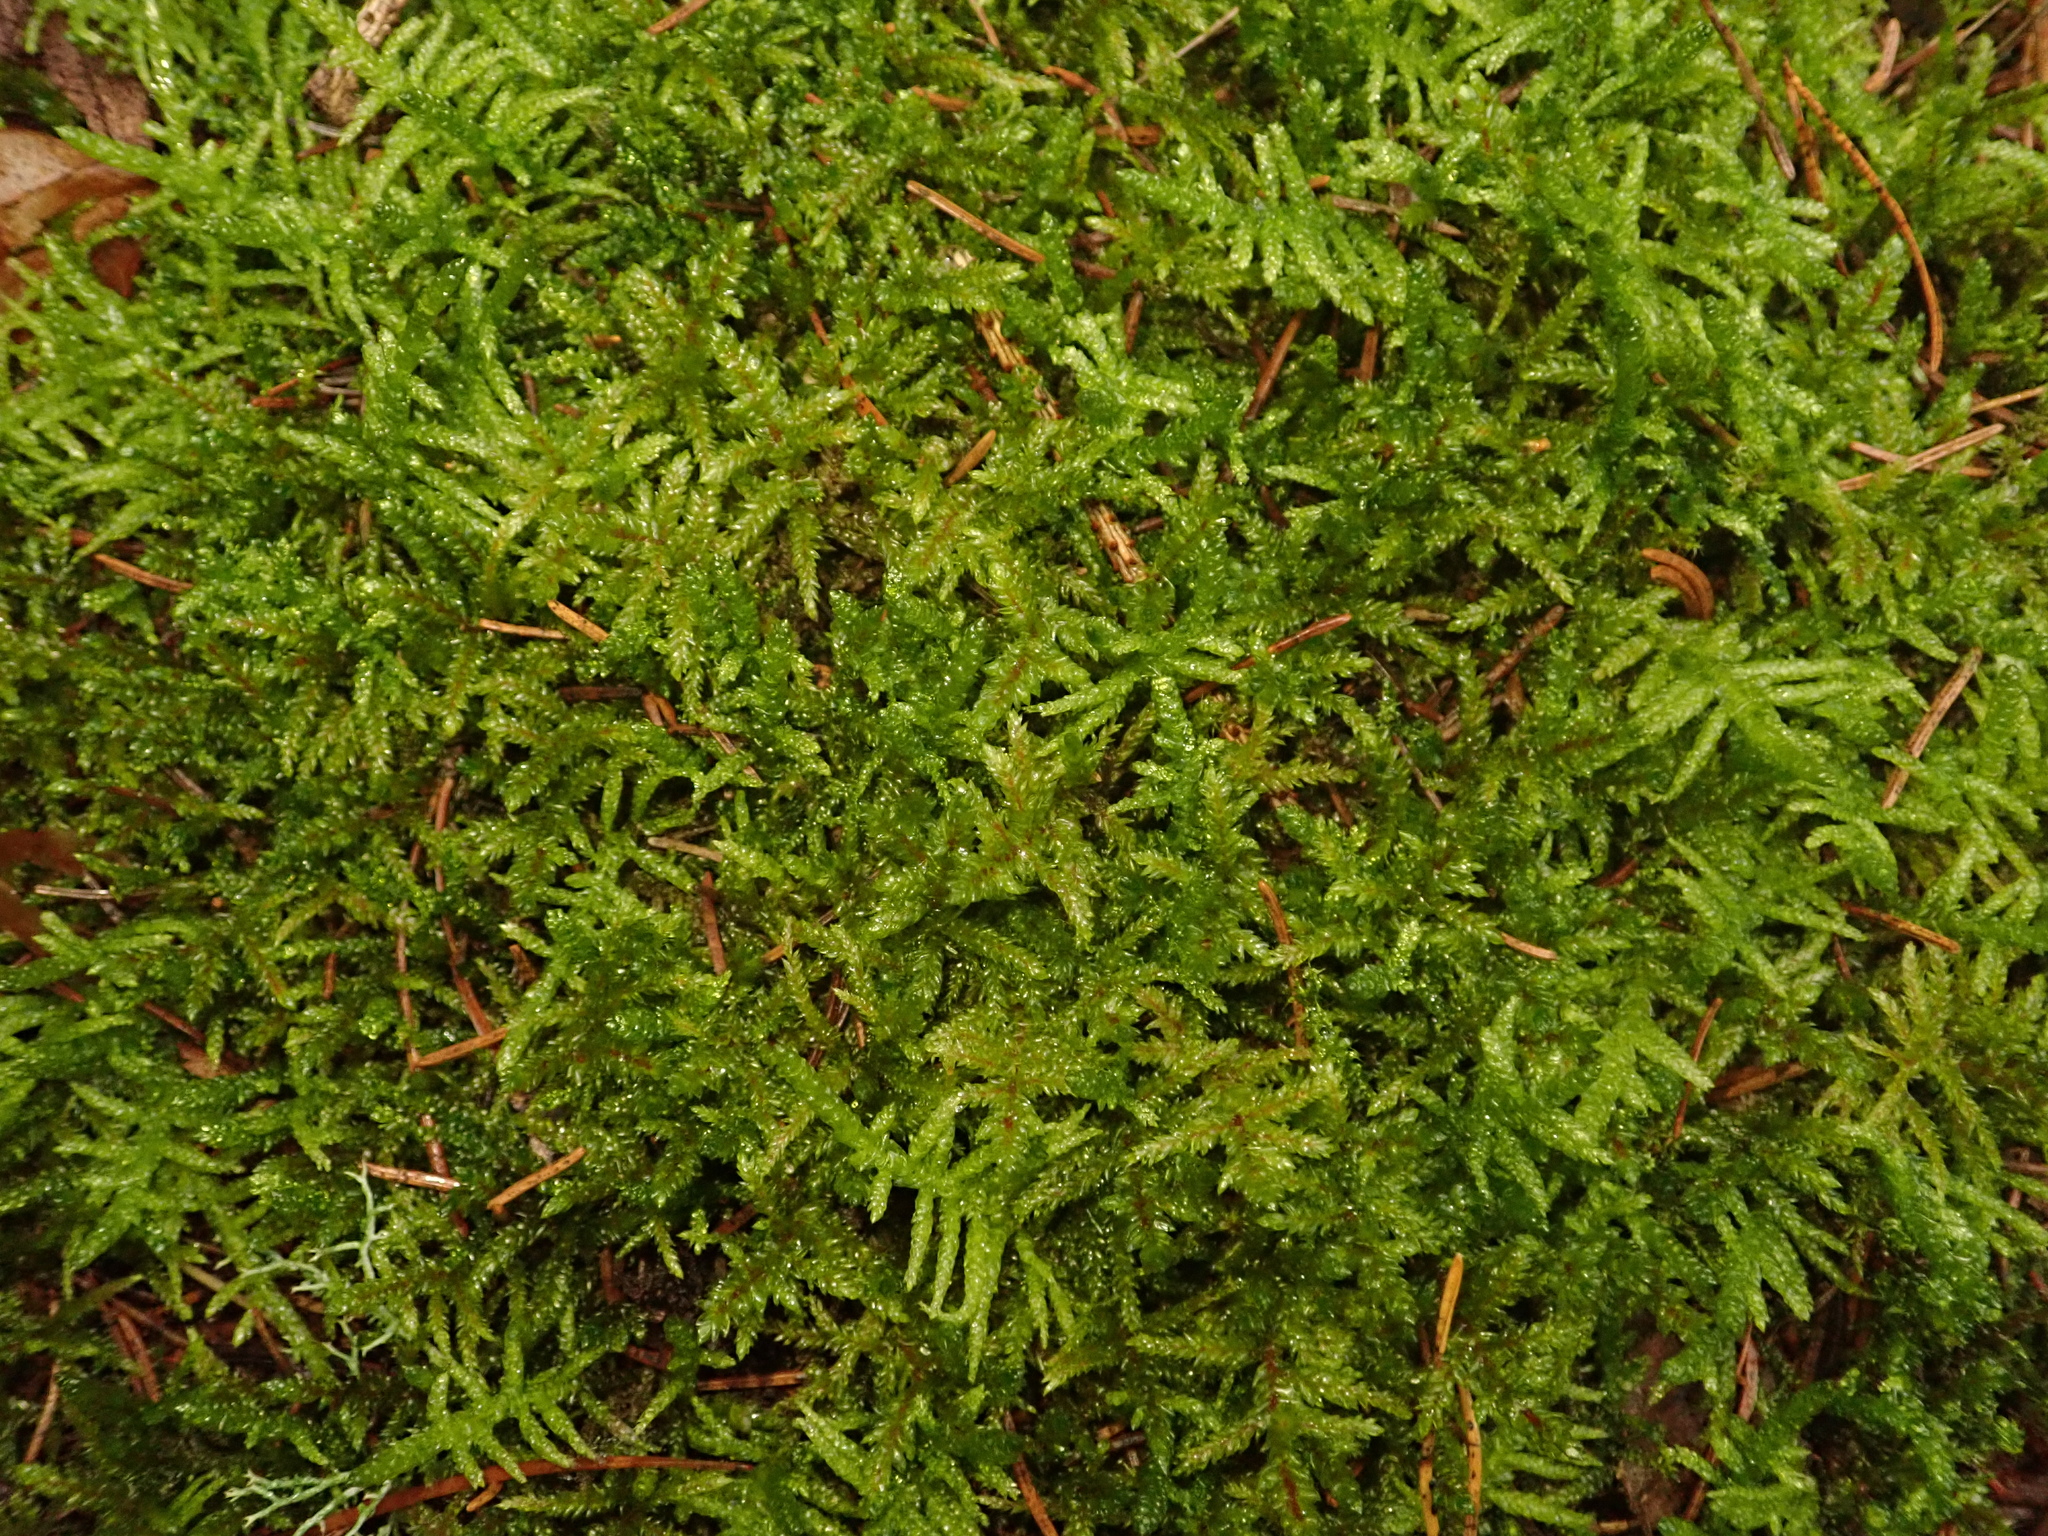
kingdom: Plantae
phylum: Bryophyta
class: Bryopsida
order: Hypnales
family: Brachytheciaceae
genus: Pseudoscleropodium
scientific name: Pseudoscleropodium purum
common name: Neat feather-moss
